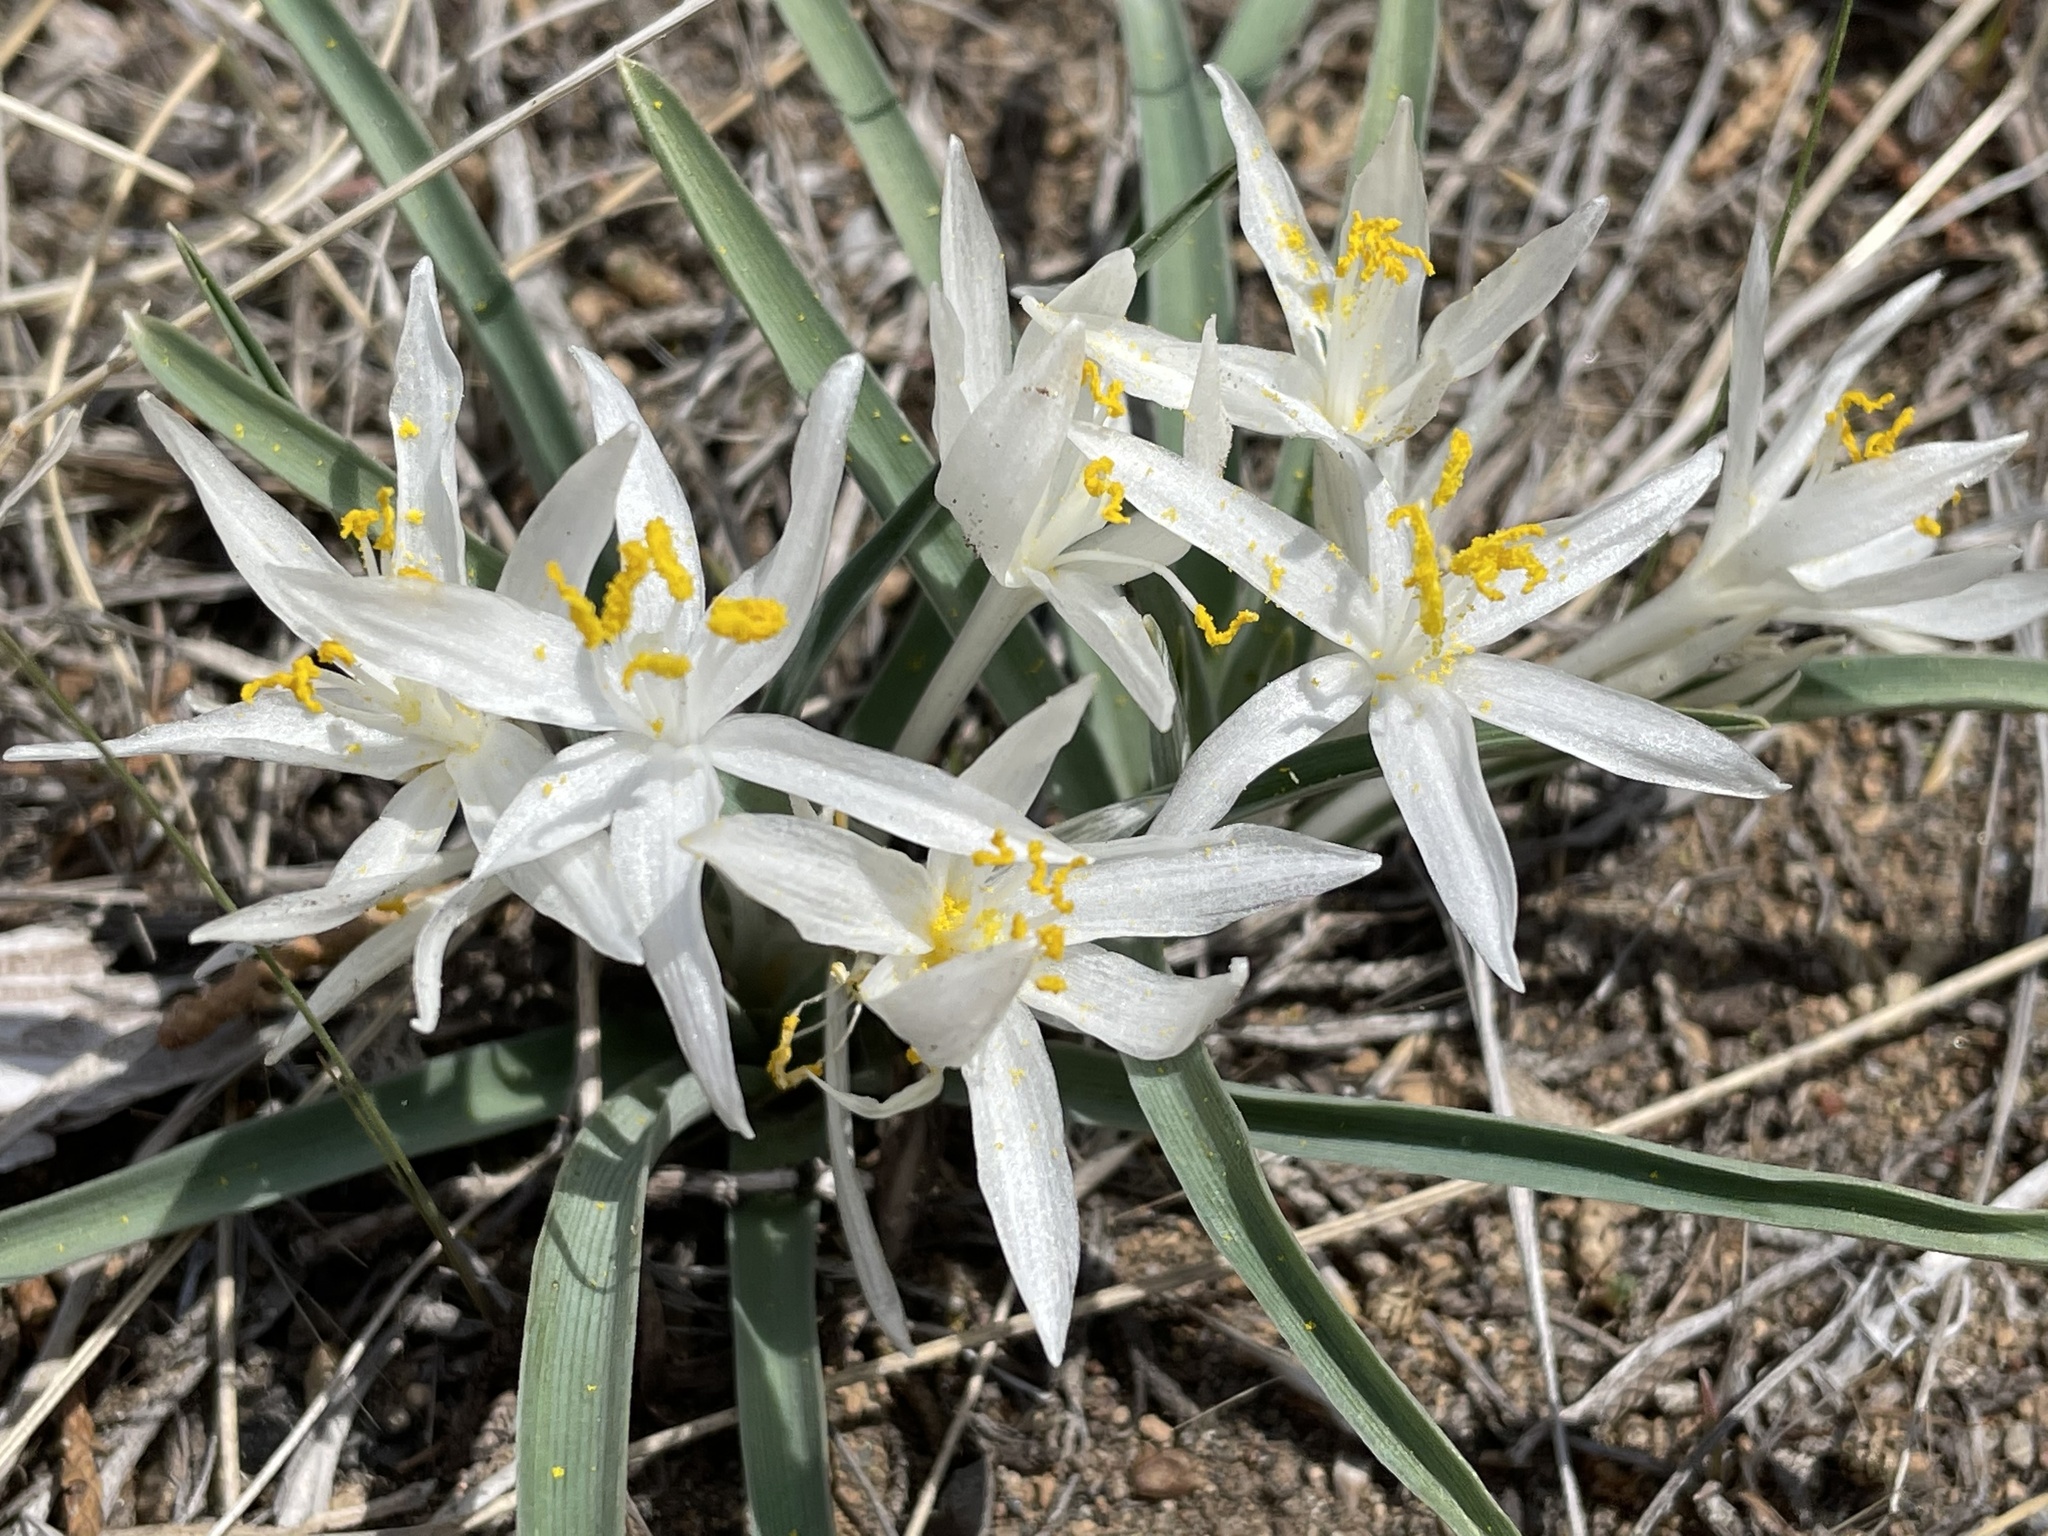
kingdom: Plantae
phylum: Tracheophyta
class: Liliopsida
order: Asparagales
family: Asparagaceae
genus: Leucocrinum
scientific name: Leucocrinum montanum
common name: Mountain-lily
